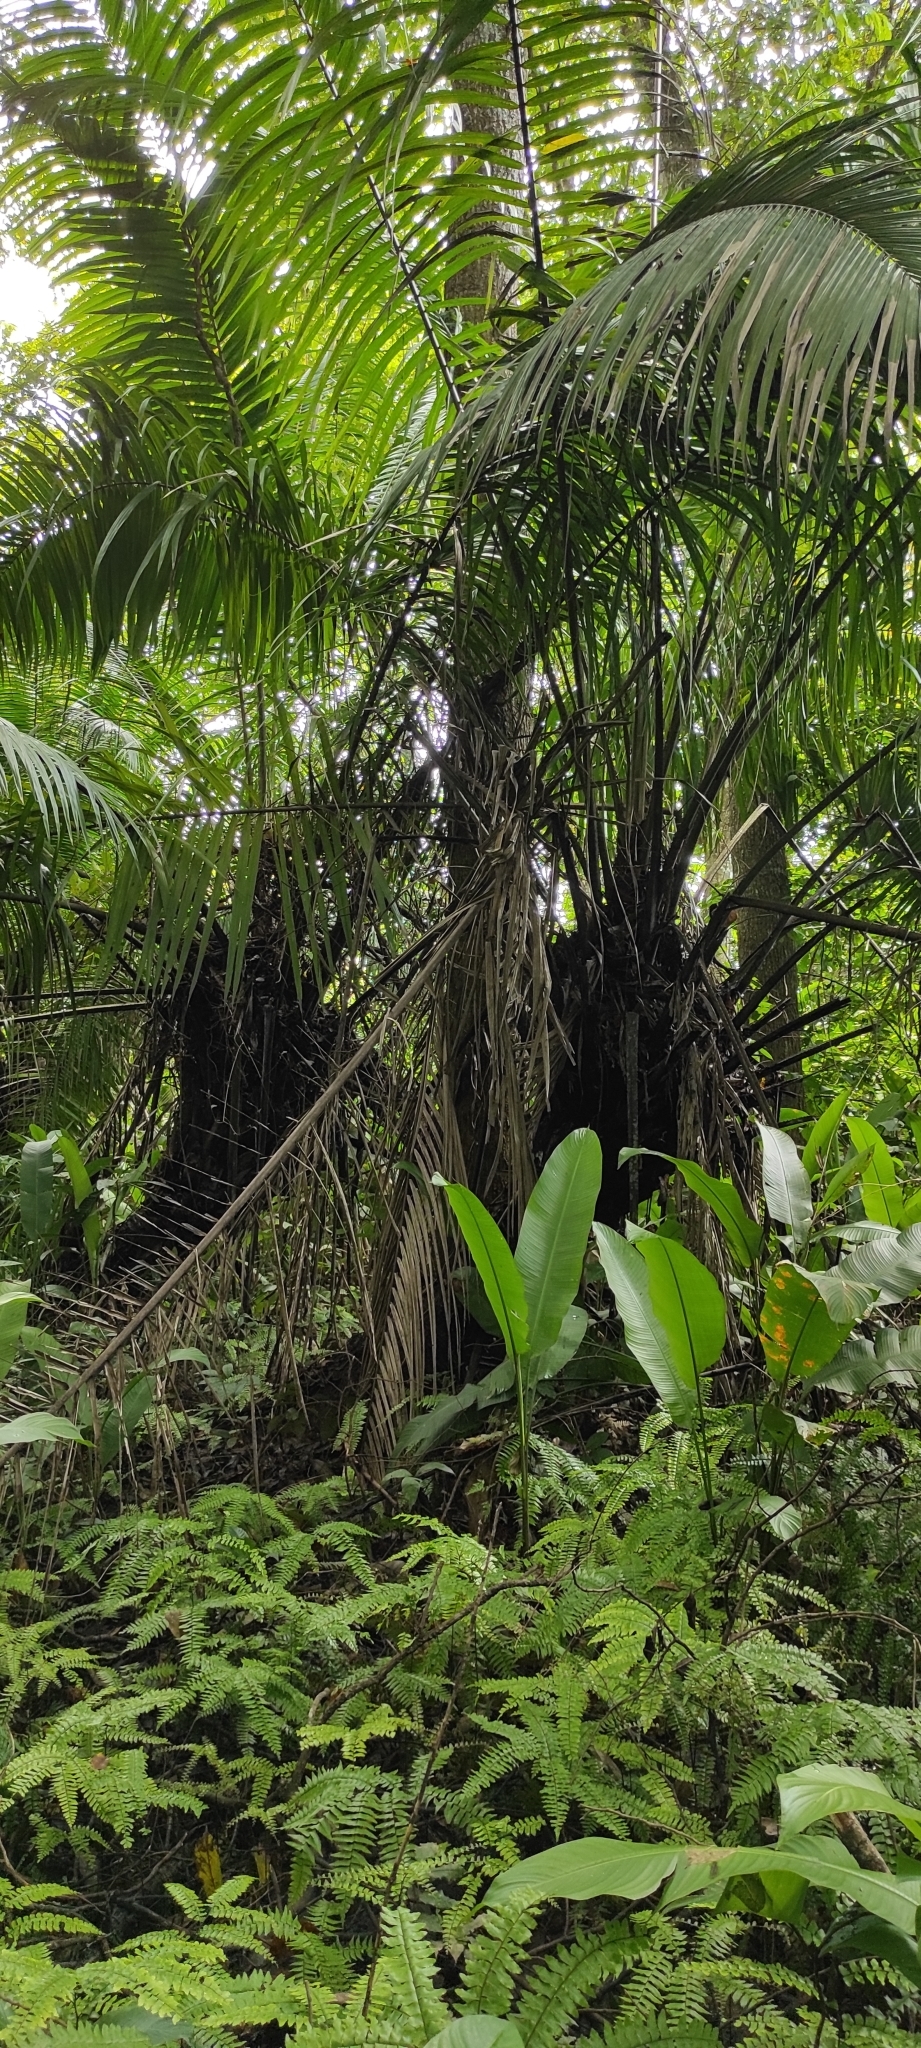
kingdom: Plantae
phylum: Tracheophyta
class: Liliopsida
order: Arecales
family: Arecaceae
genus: Elaeis
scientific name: Elaeis oleifera
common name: American oil palm
